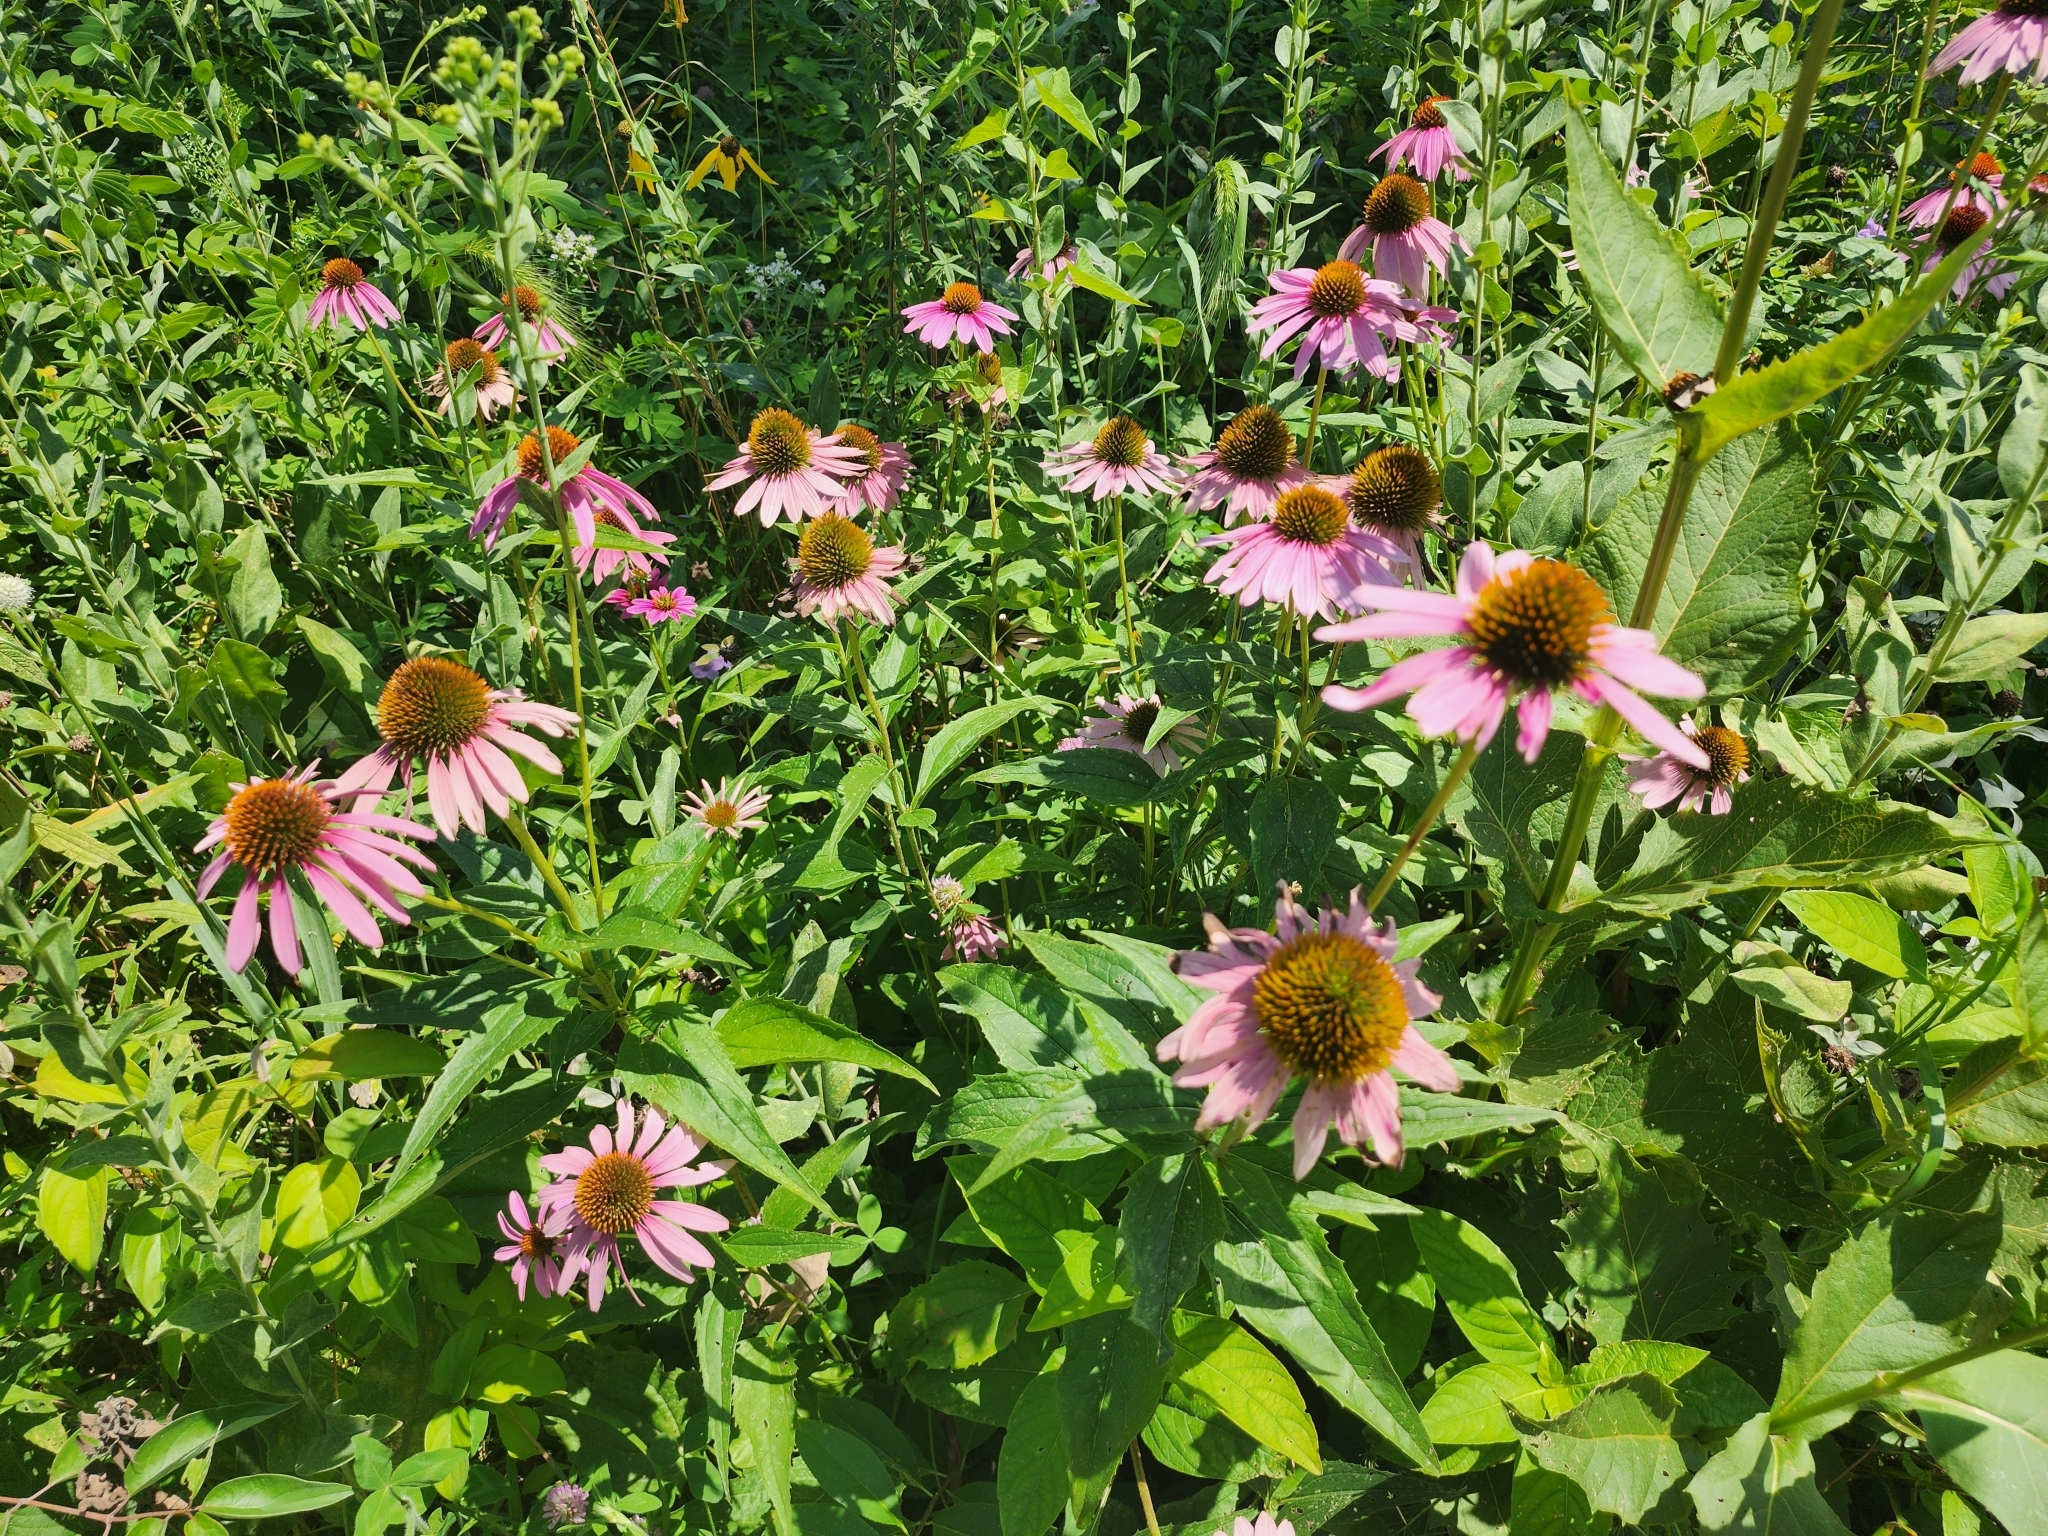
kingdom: Plantae
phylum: Tracheophyta
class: Magnoliopsida
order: Asterales
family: Asteraceae
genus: Echinacea
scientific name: Echinacea purpurea
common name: Broad-leaved purple coneflower
